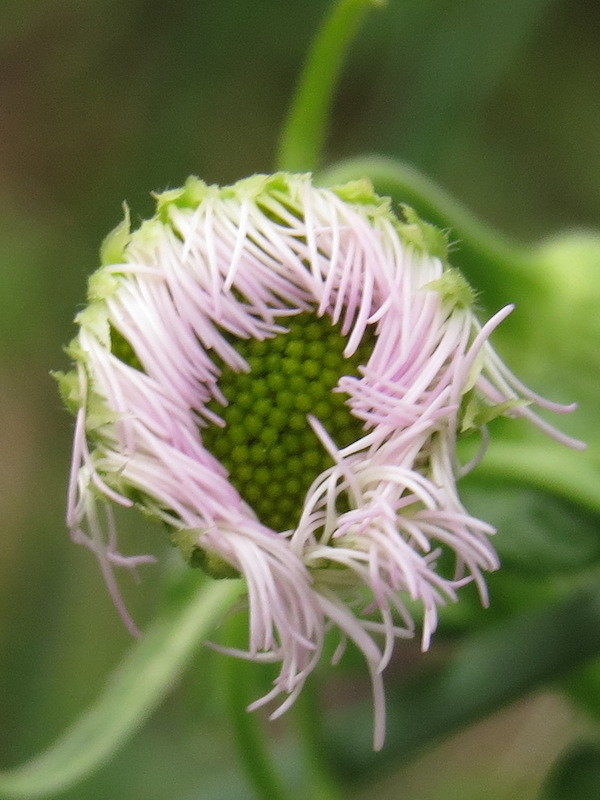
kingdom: Plantae
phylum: Tracheophyta
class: Magnoliopsida
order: Asterales
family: Asteraceae
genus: Erigeron
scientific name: Erigeron philadelphicus
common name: Robin's-plantain
